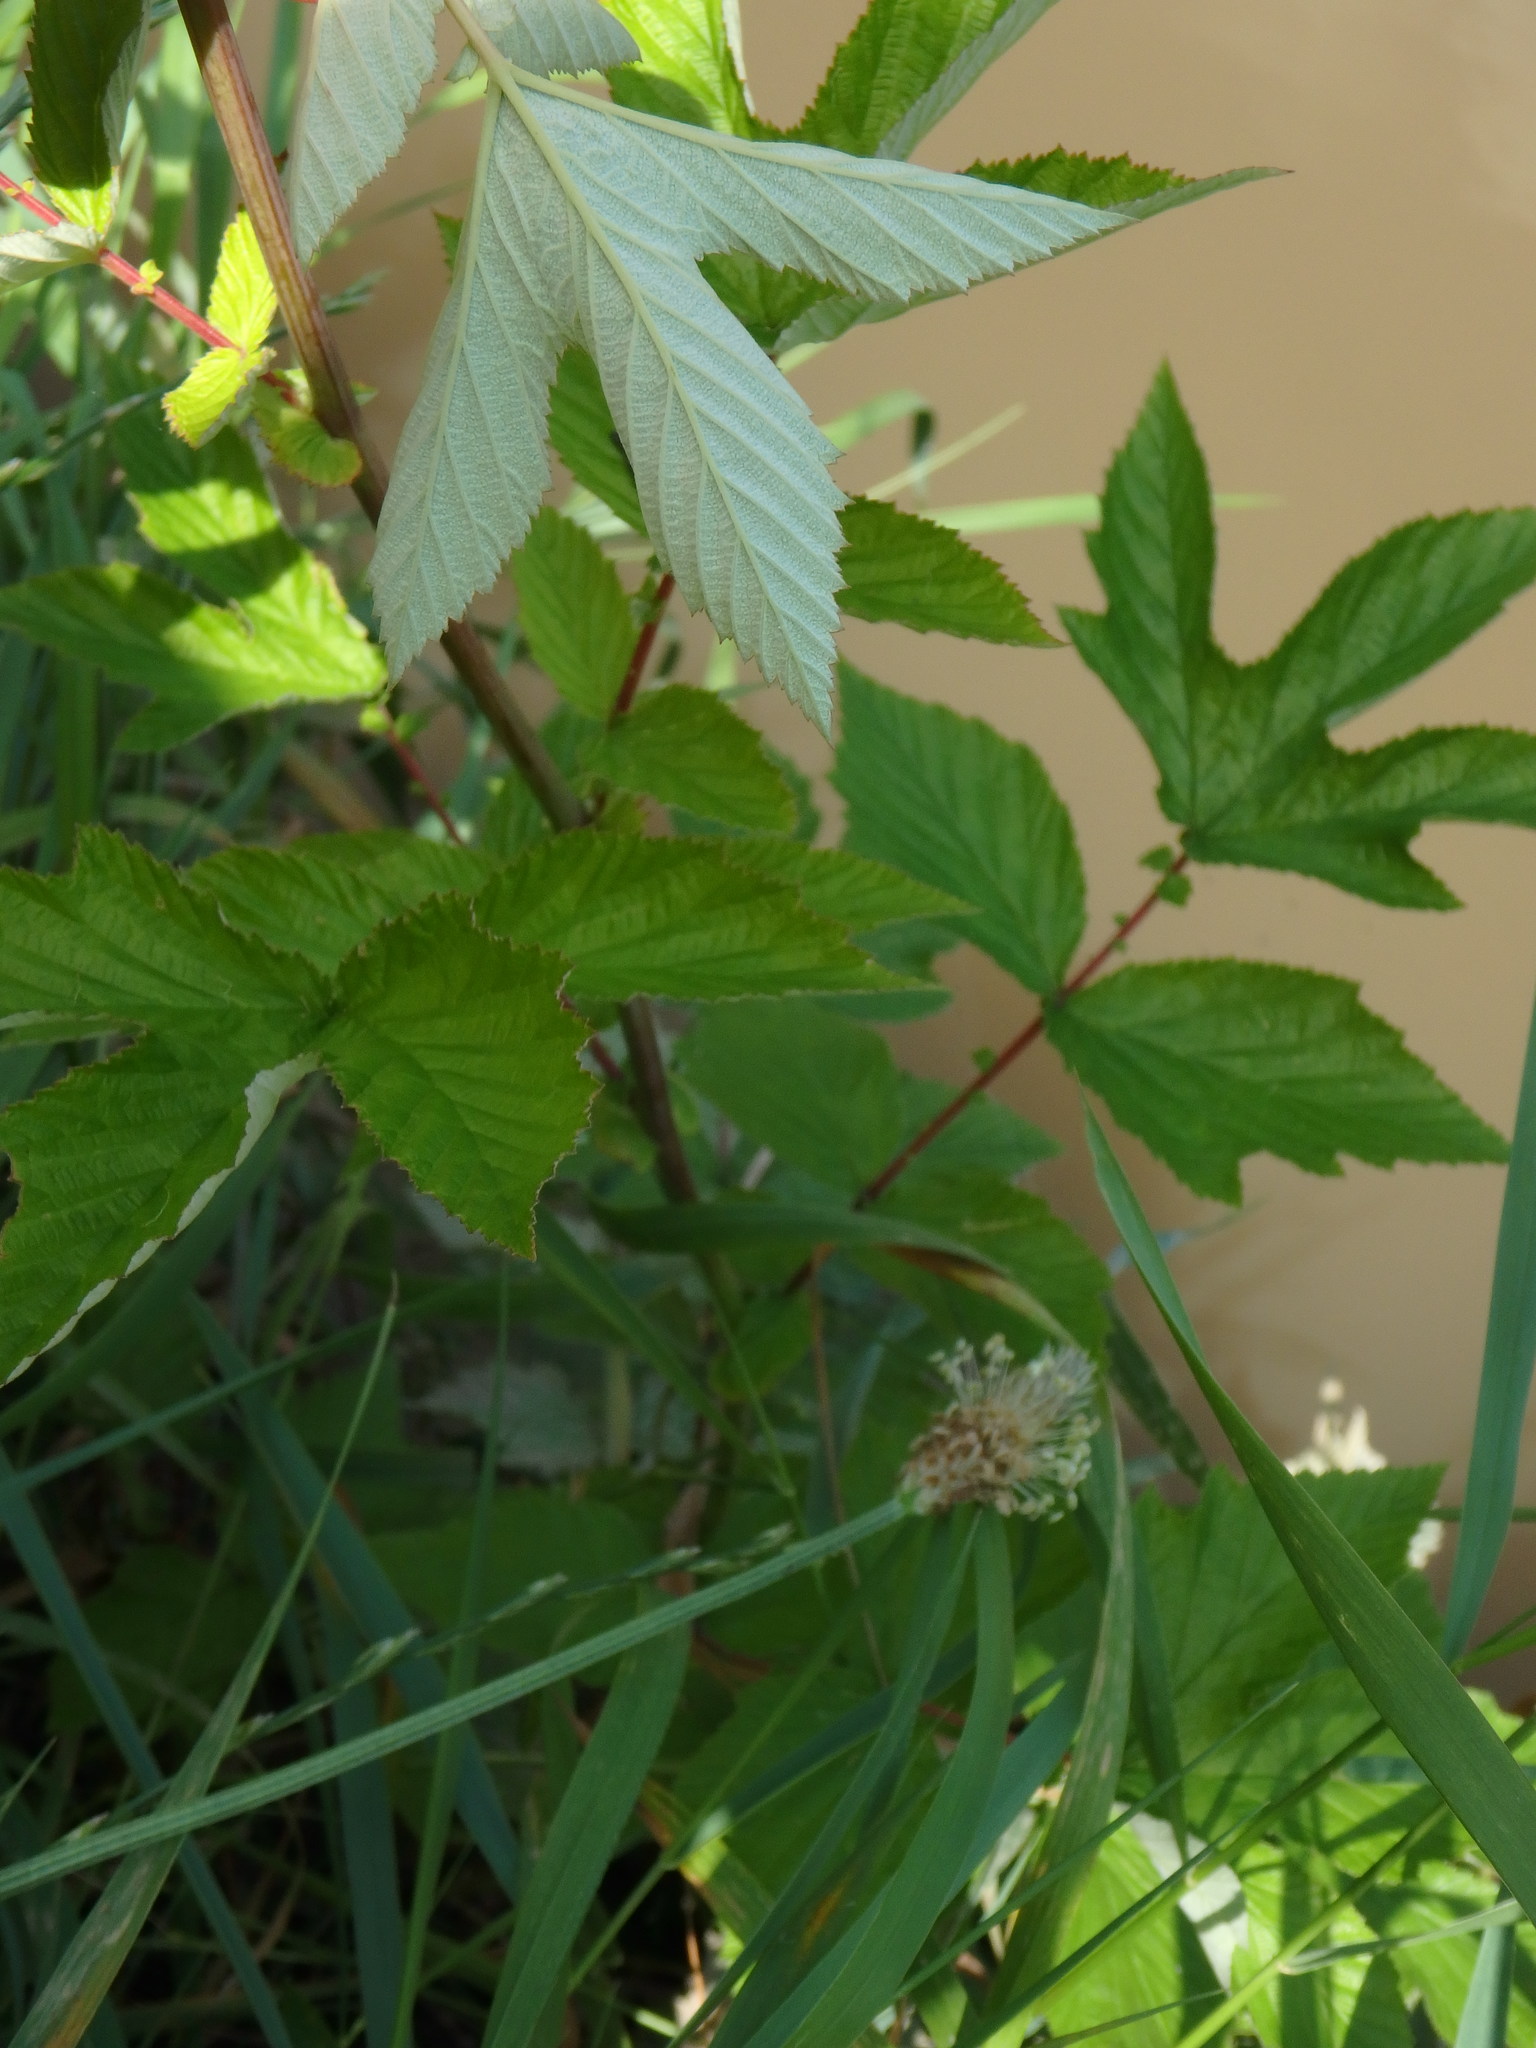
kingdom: Plantae
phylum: Tracheophyta
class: Magnoliopsida
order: Rosales
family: Rosaceae
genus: Filipendula
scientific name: Filipendula ulmaria
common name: Meadowsweet
